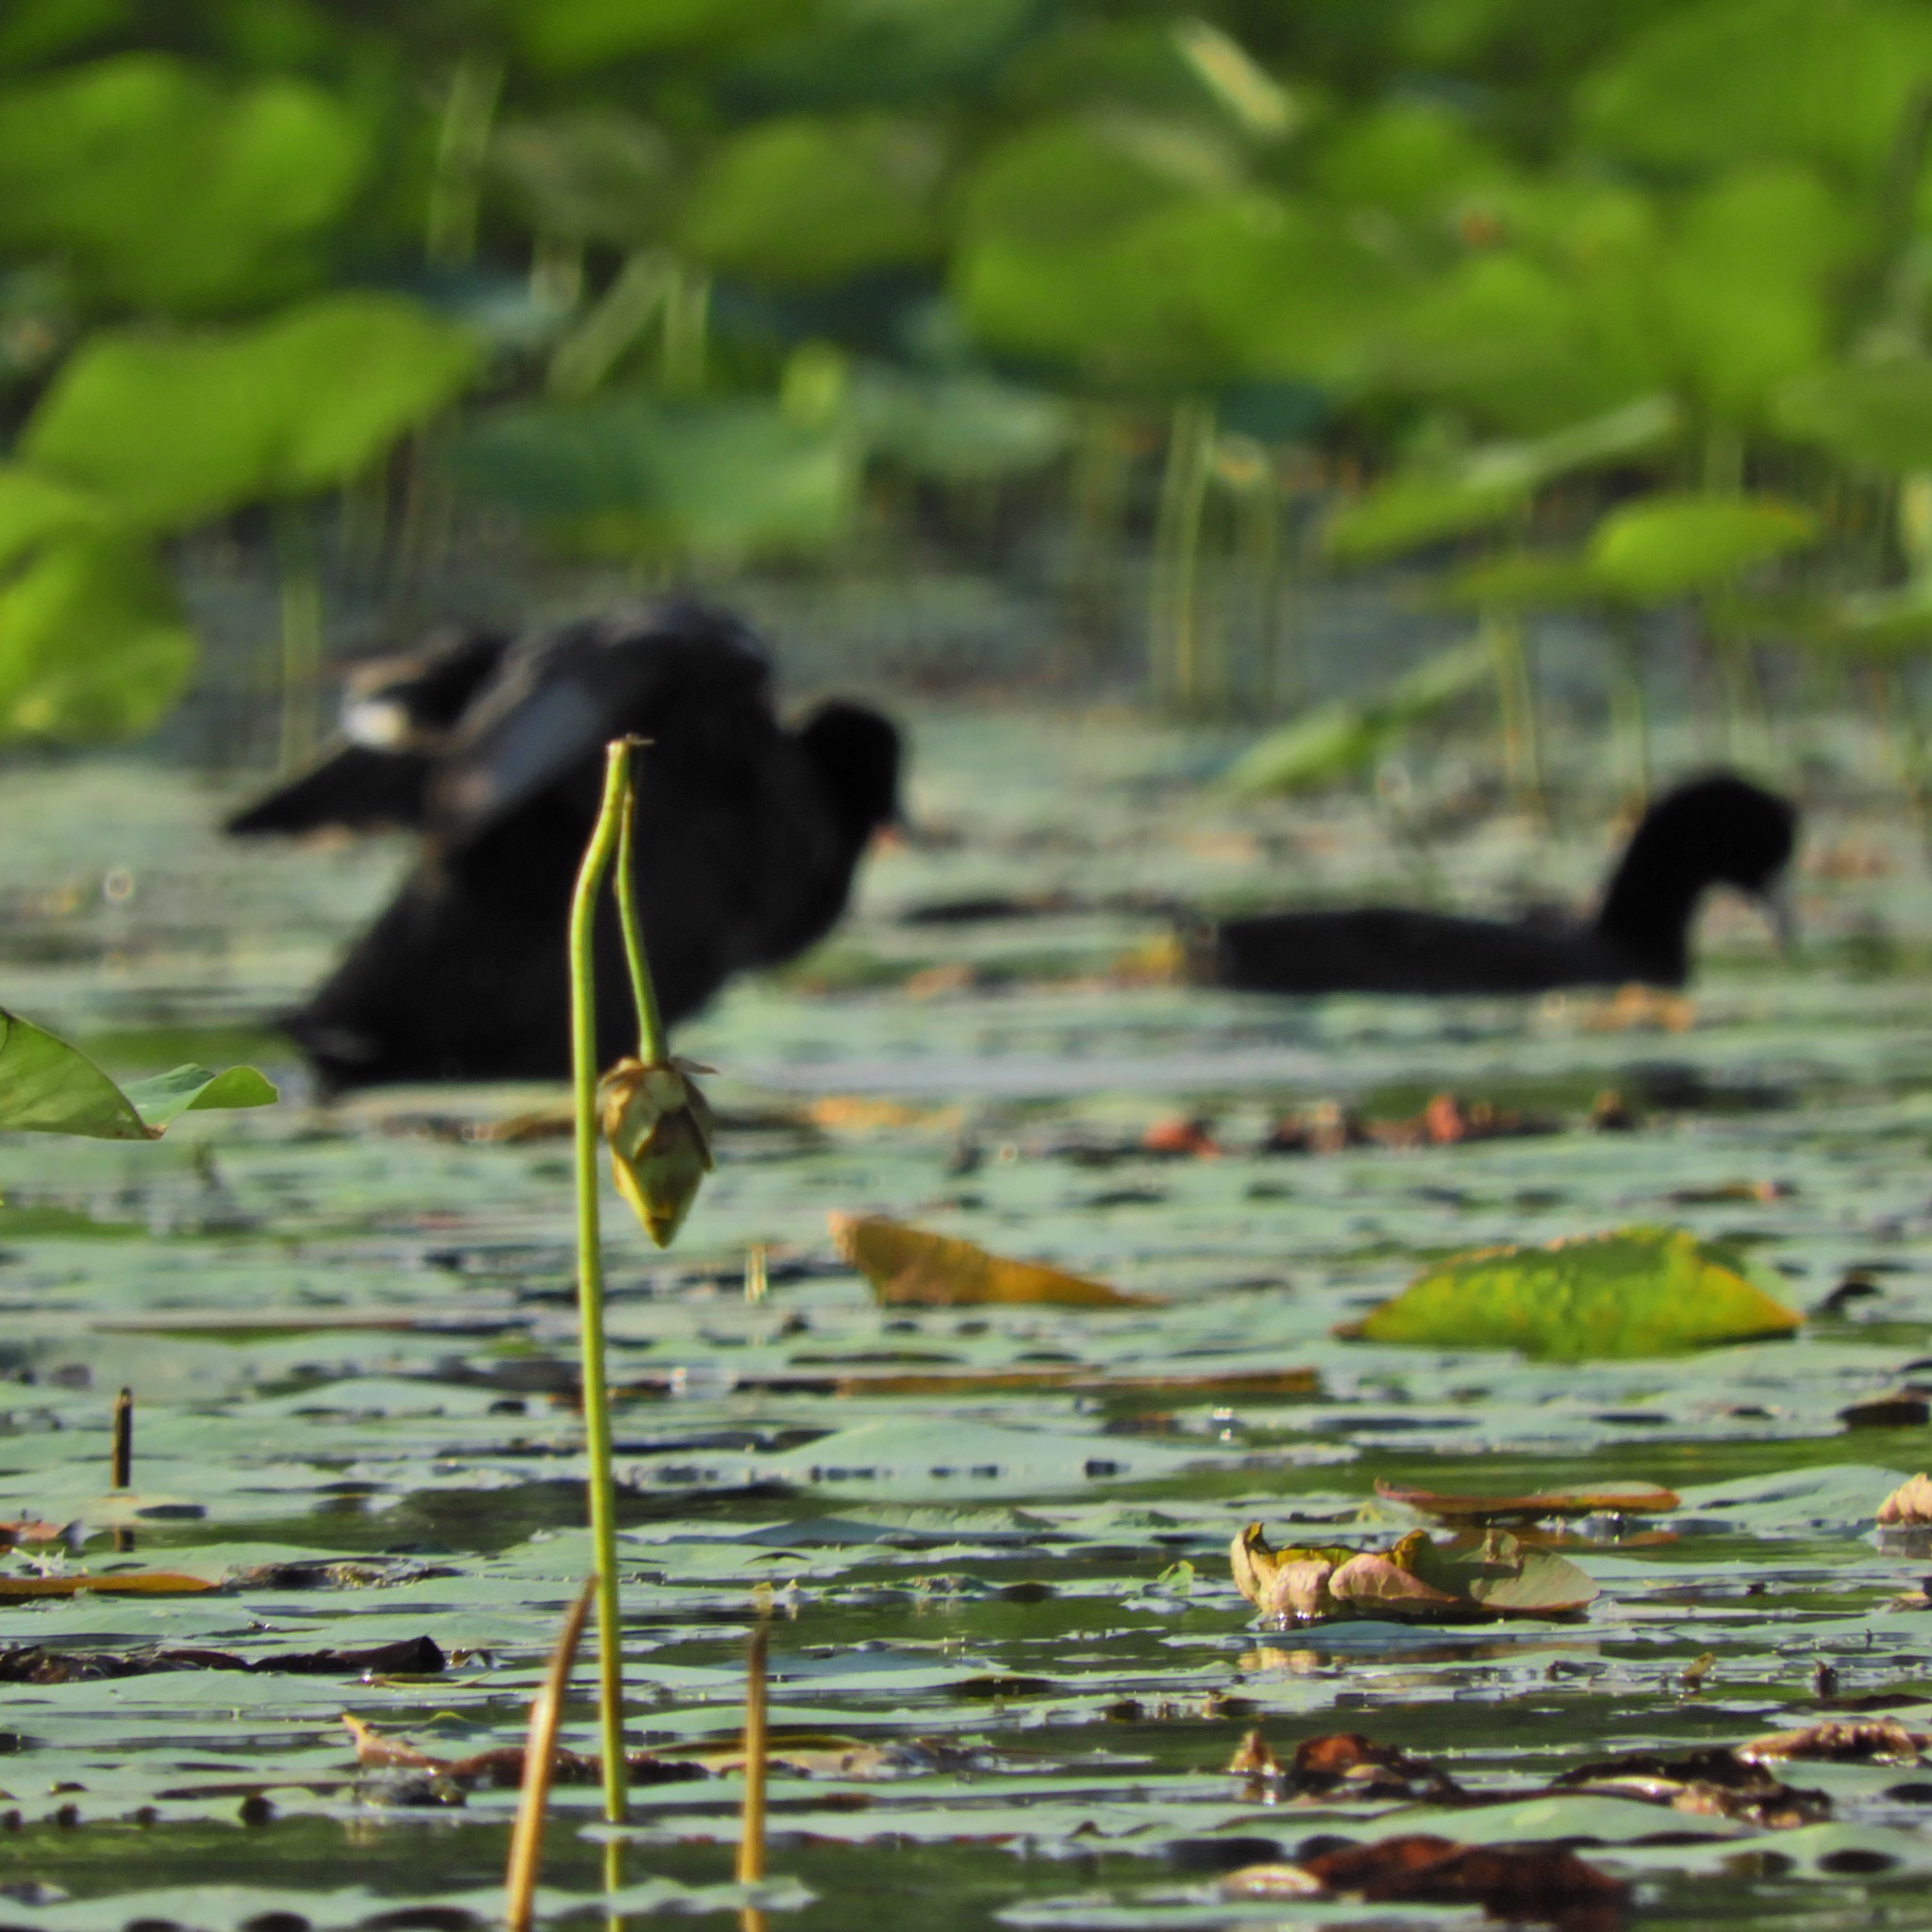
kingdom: Animalia
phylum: Chordata
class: Aves
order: Gruiformes
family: Rallidae
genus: Fulica
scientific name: Fulica americana
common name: American coot
